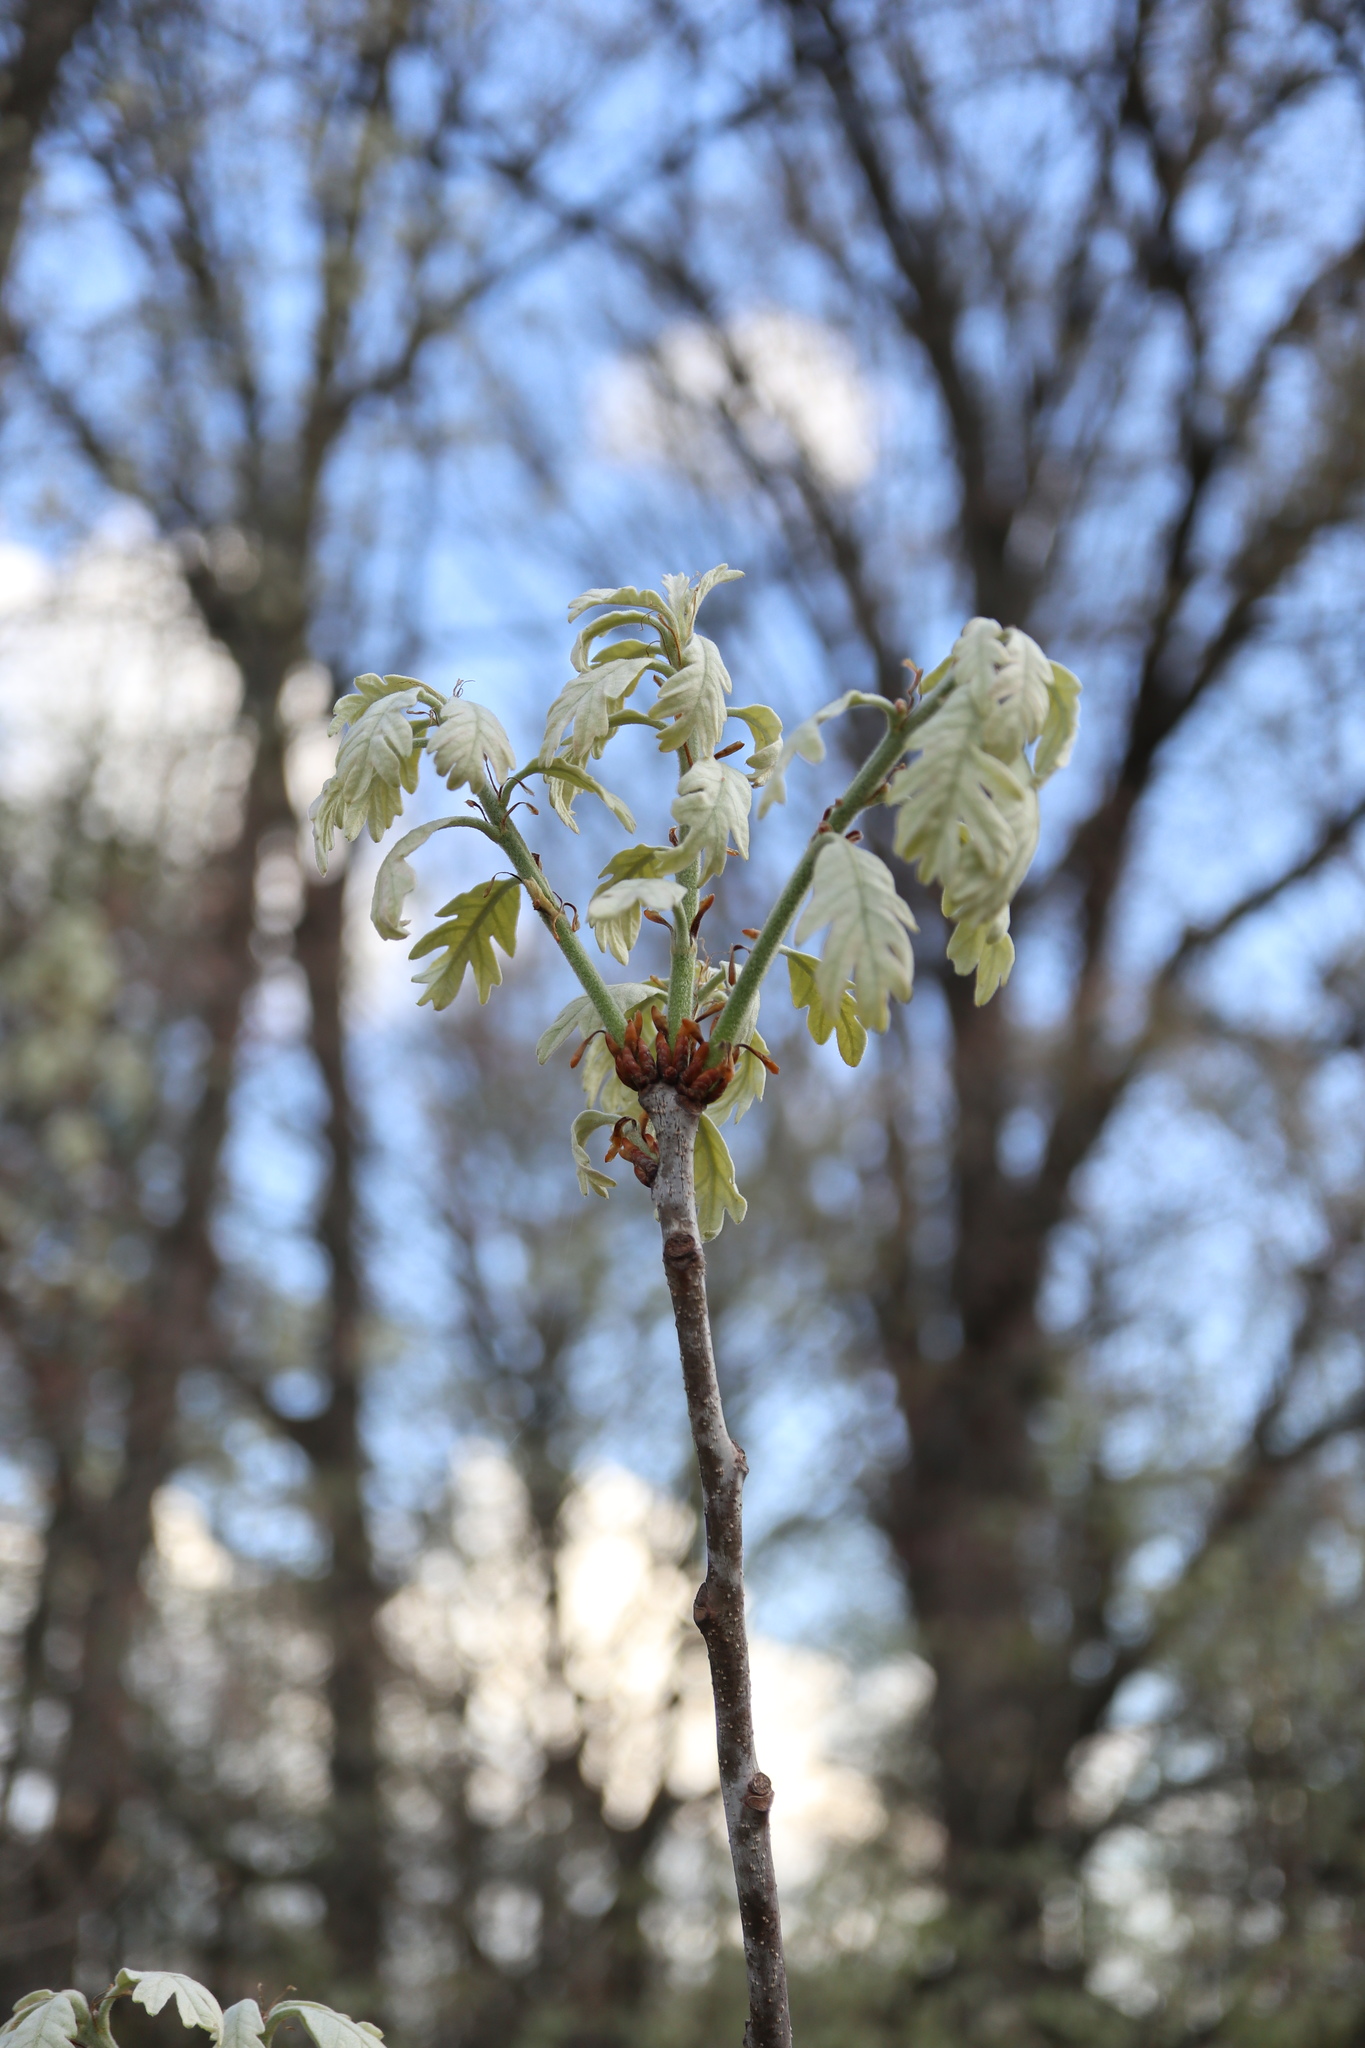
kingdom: Plantae
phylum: Tracheophyta
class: Magnoliopsida
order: Fagales
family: Fagaceae
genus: Quercus
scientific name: Quercus alba
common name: White oak
